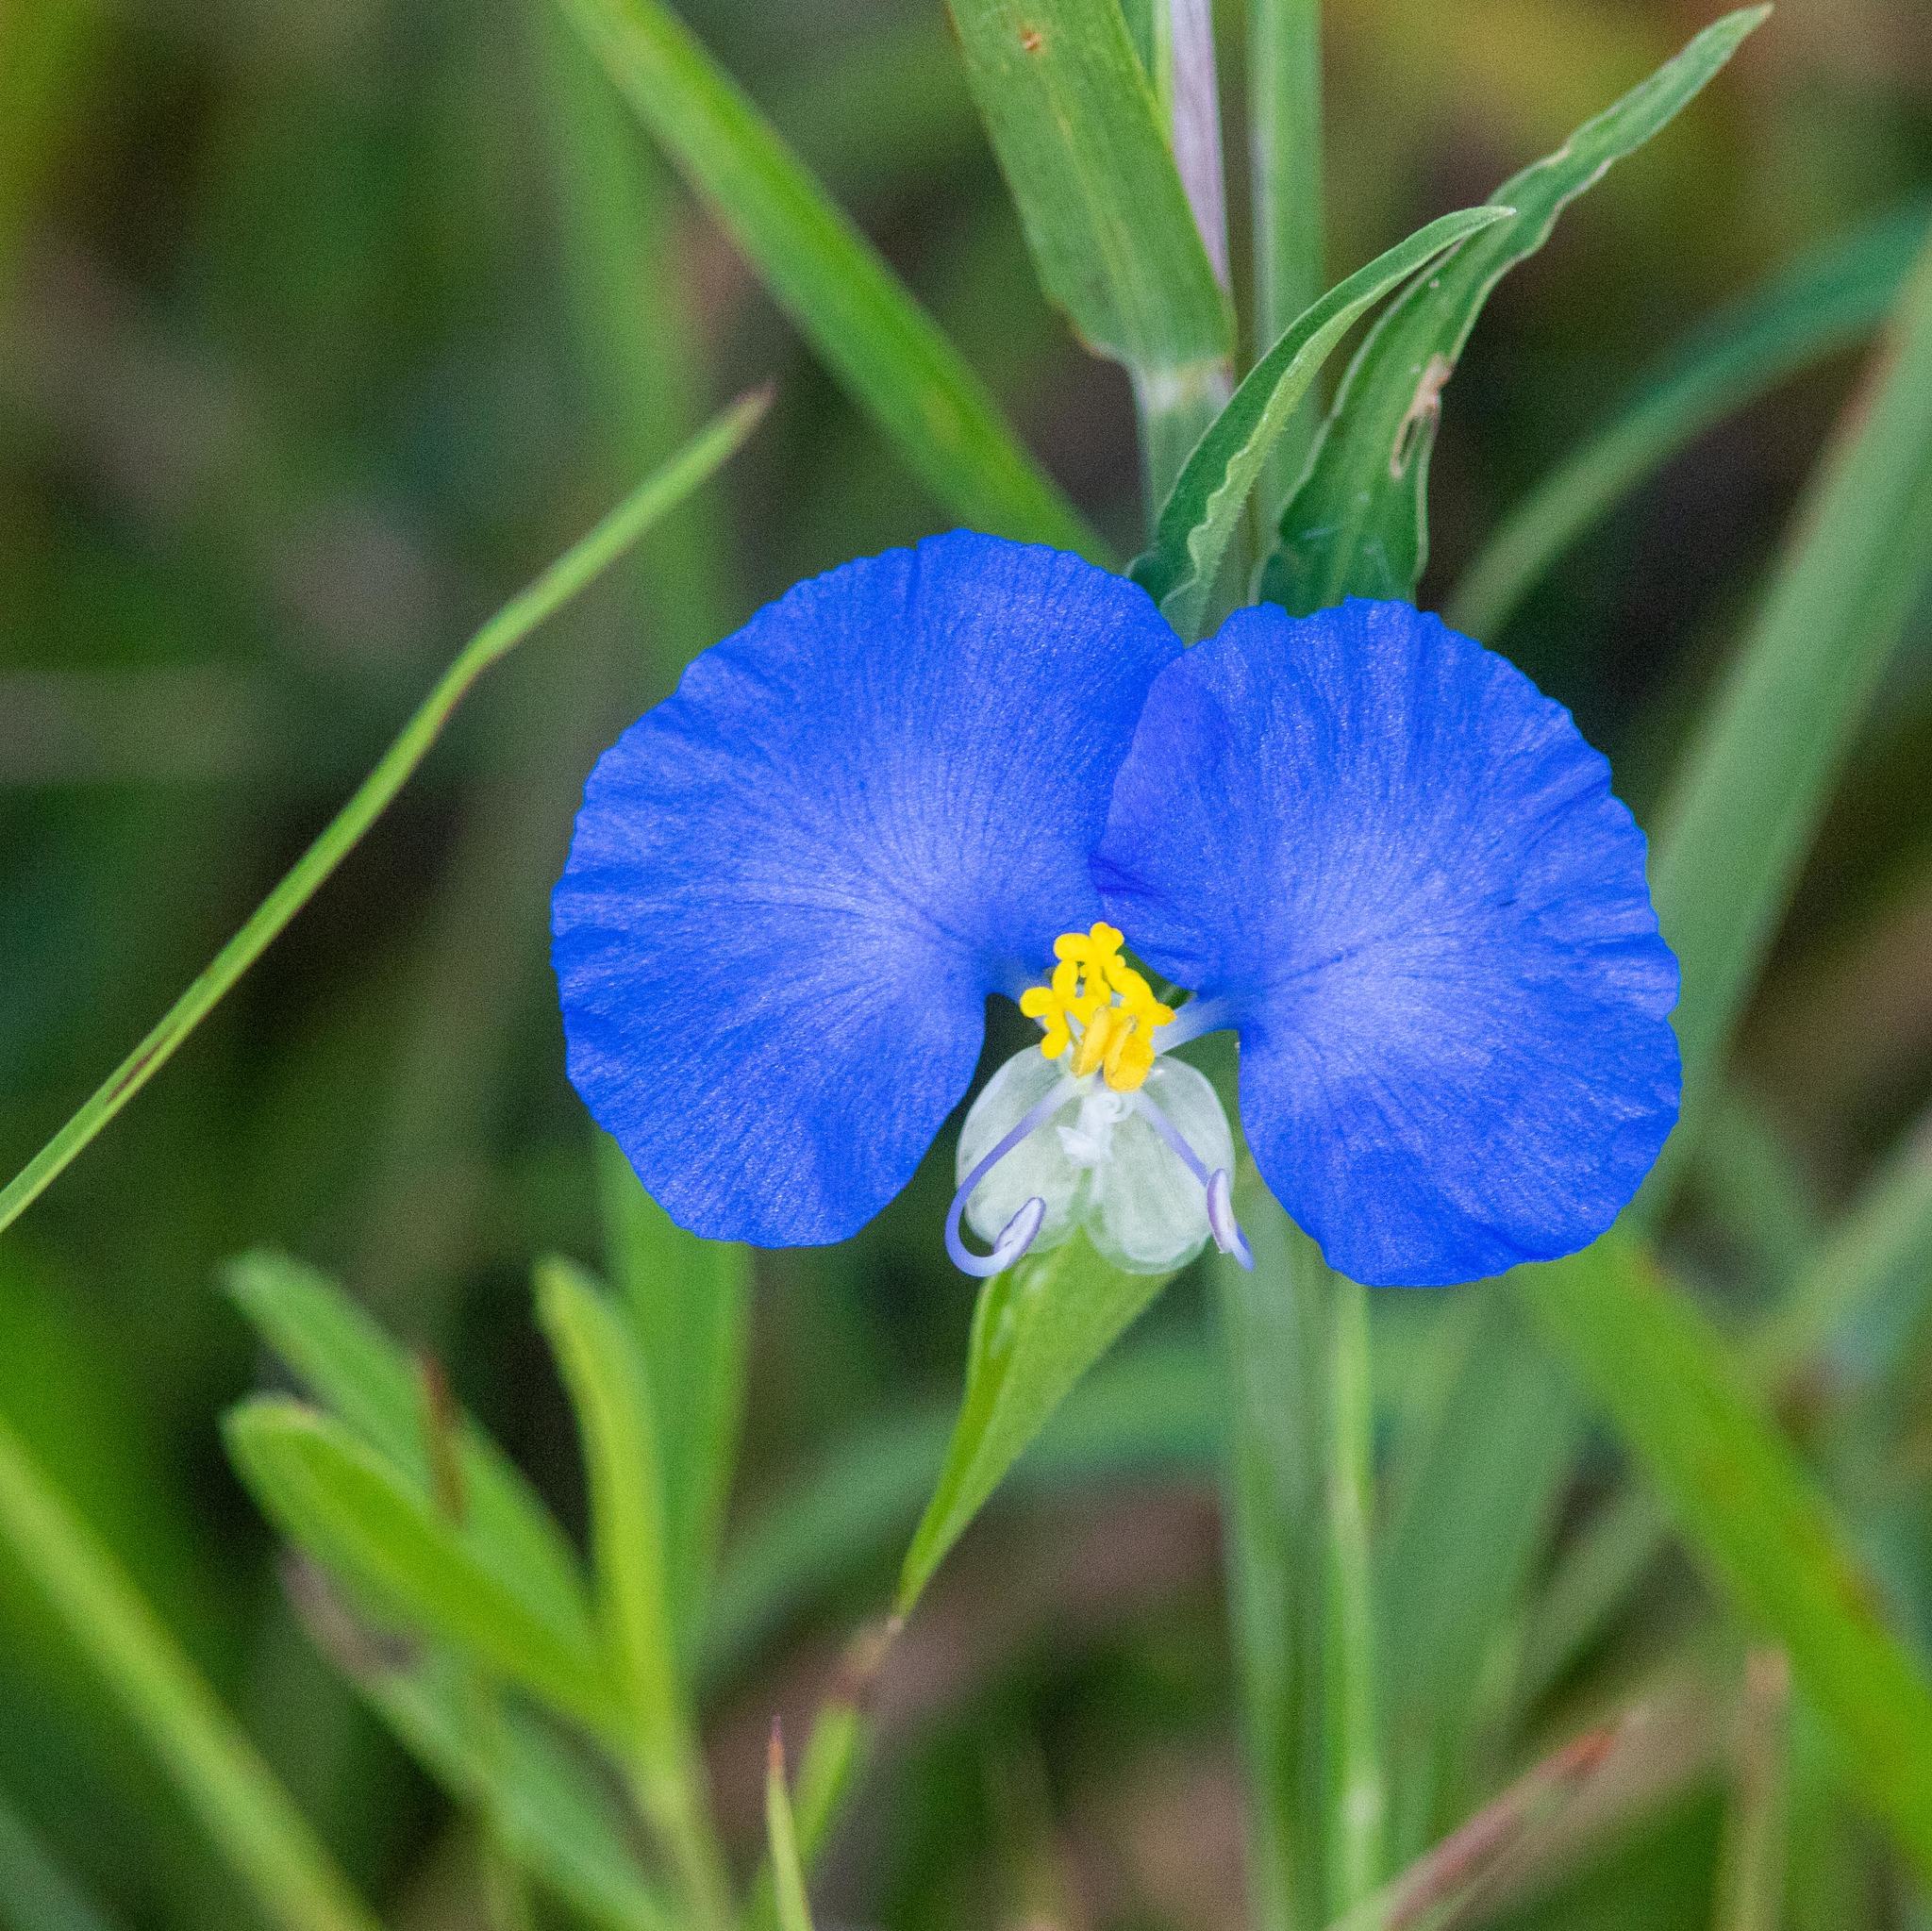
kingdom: Plantae
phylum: Tracheophyta
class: Liliopsida
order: Commelinales
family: Commelinaceae
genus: Commelina
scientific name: Commelina erecta
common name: Blousel blommetjie
